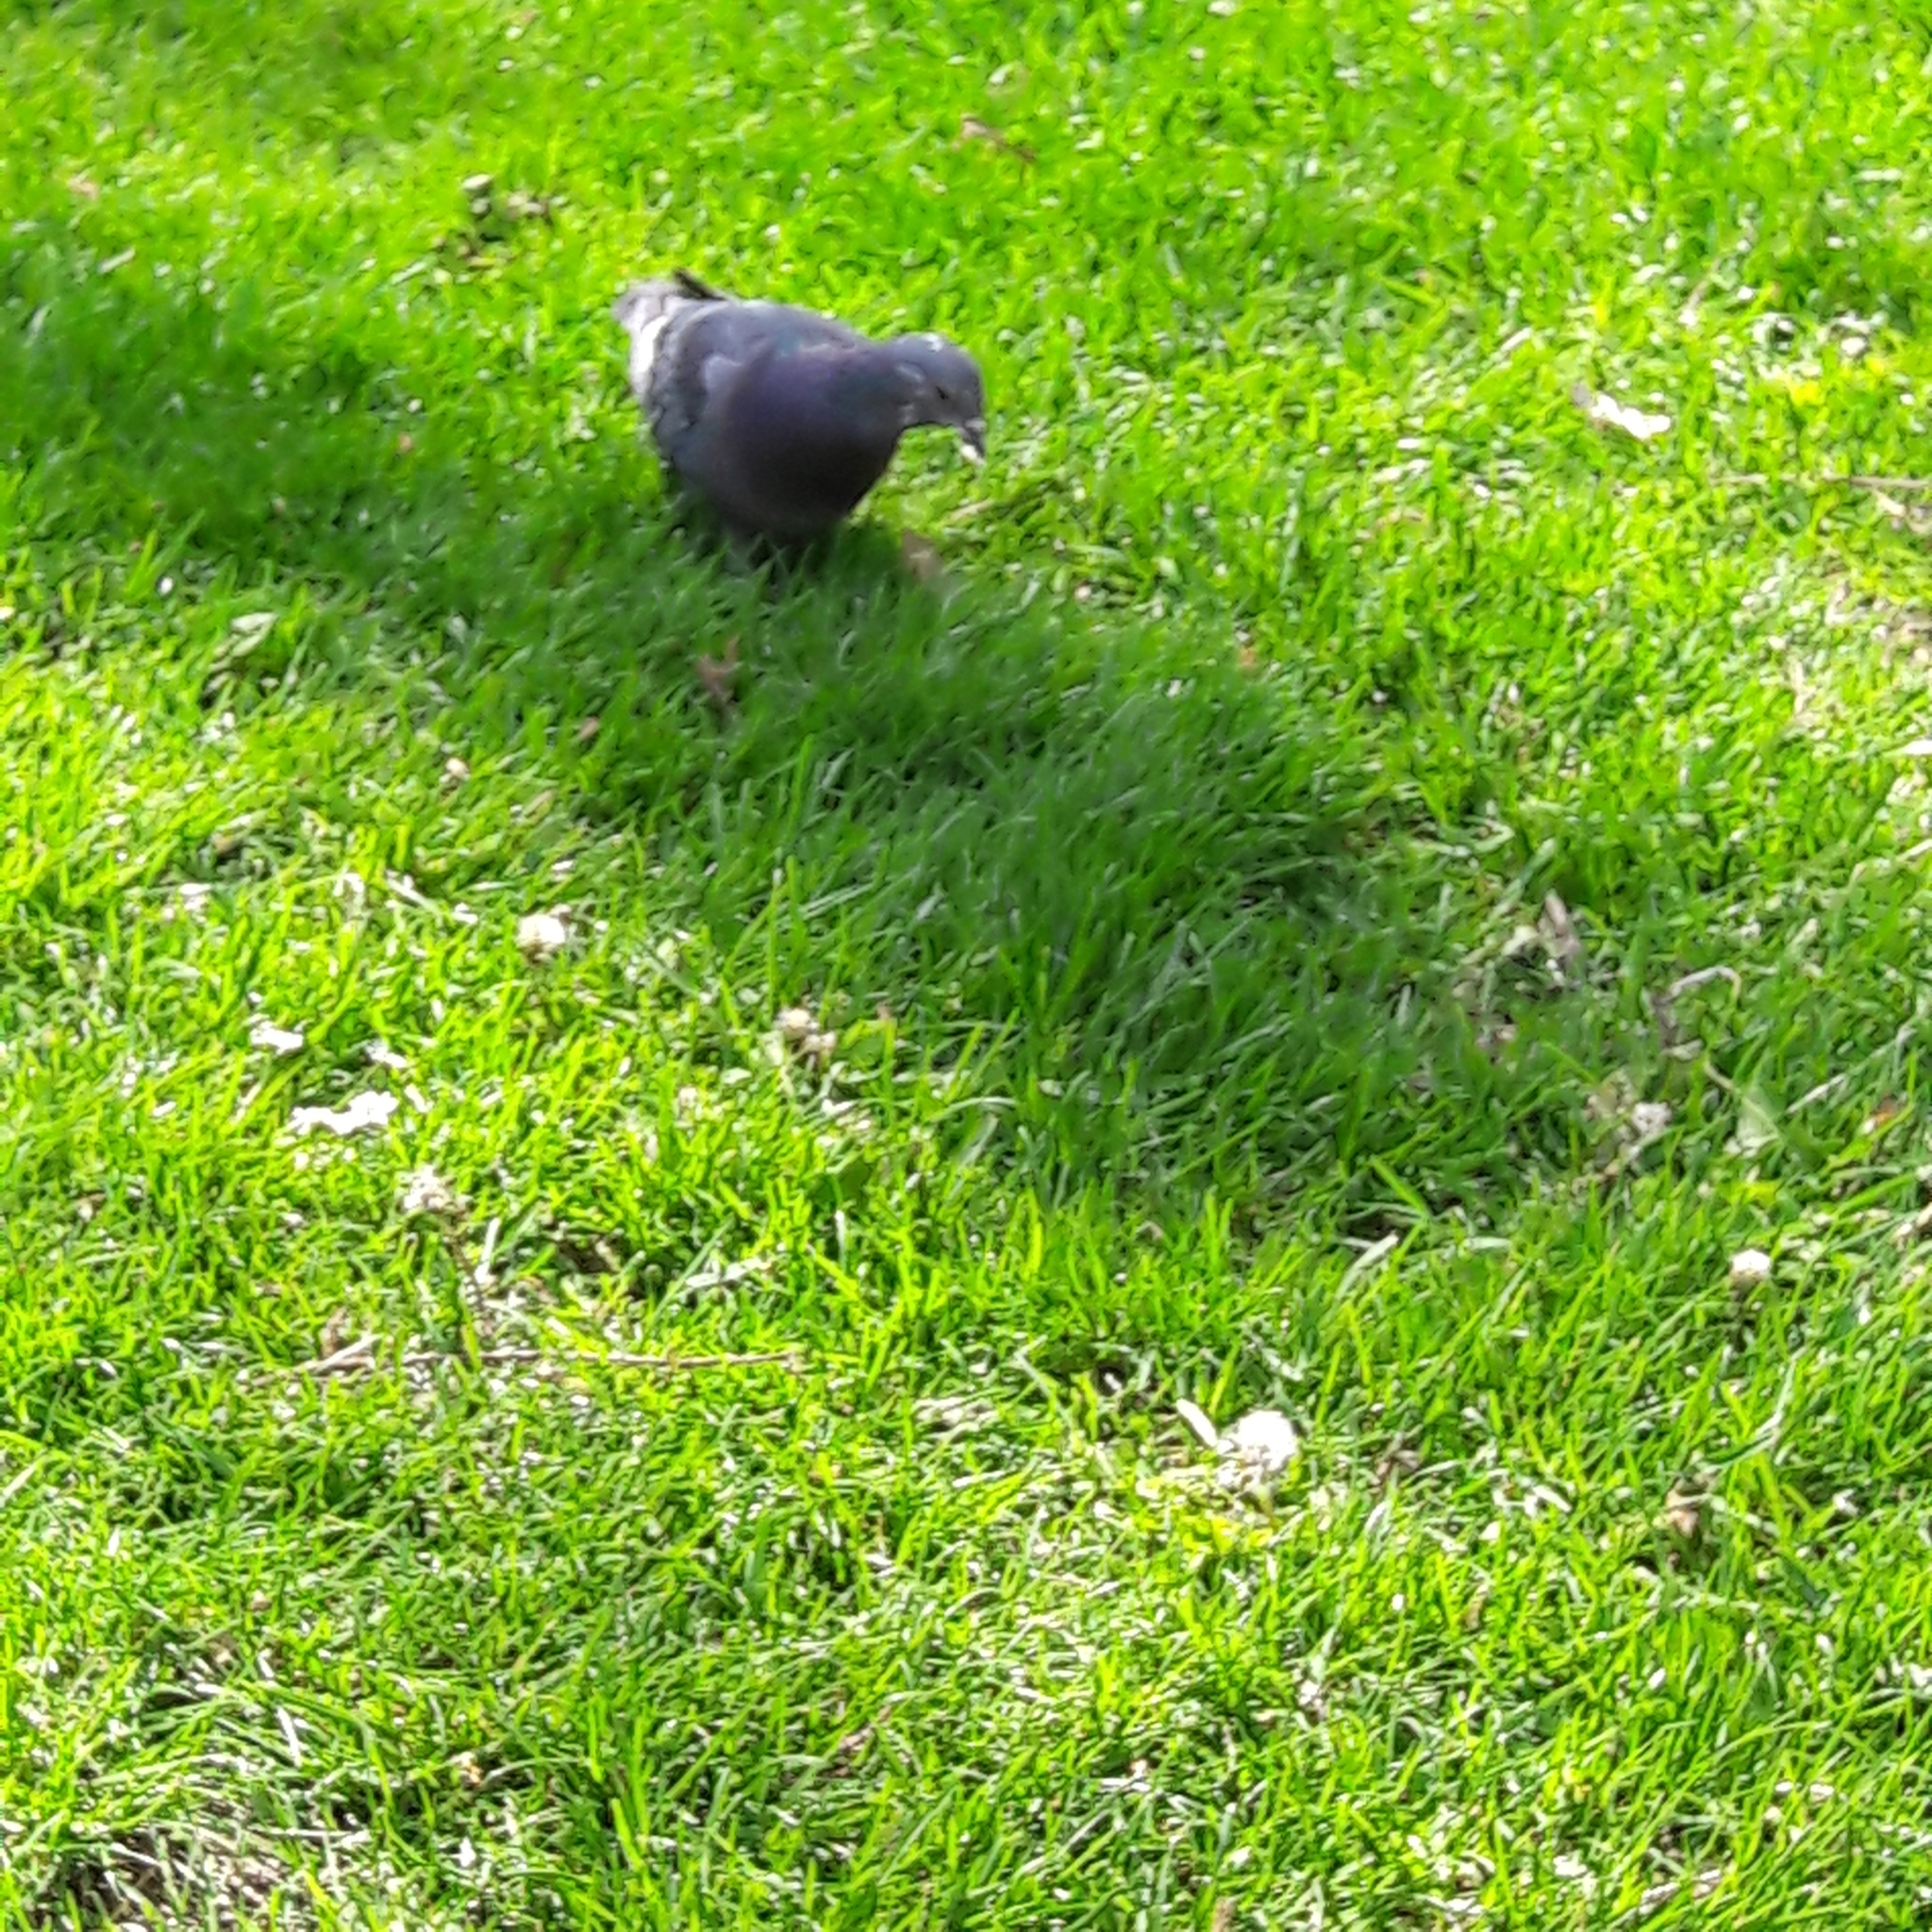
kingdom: Animalia
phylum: Chordata
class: Aves
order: Columbiformes
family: Columbidae
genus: Columba
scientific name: Columba livia
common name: Rock pigeon
